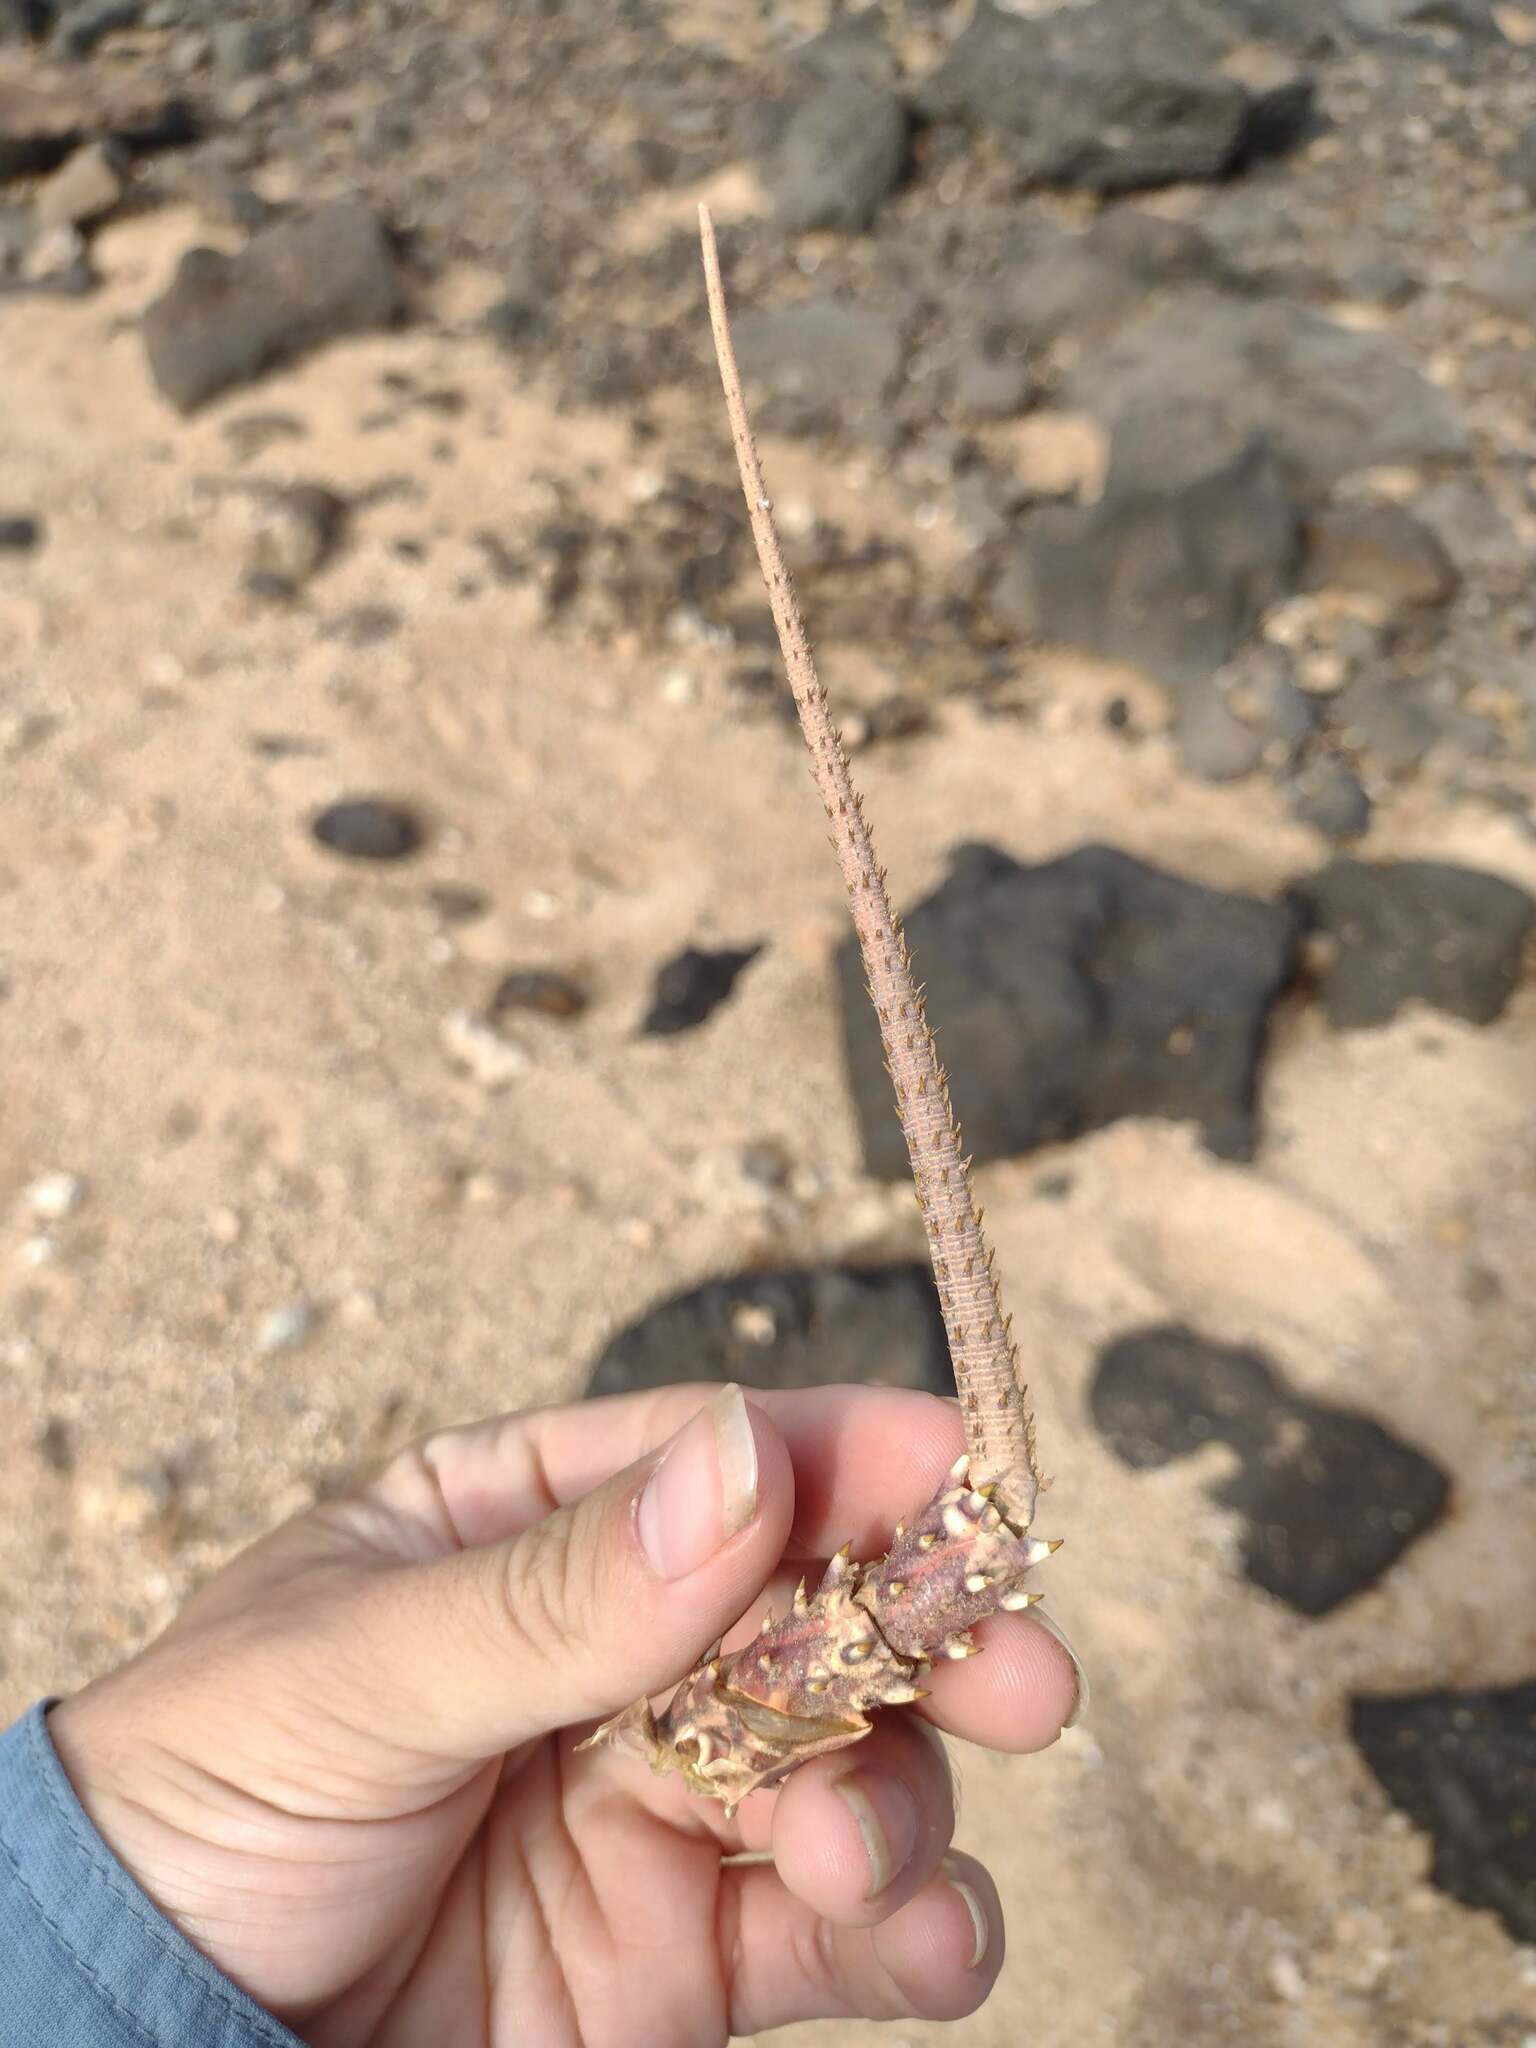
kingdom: Animalia
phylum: Arthropoda
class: Malacostraca
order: Decapoda
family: Palinuridae
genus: Panulirus
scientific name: Panulirus penicillatus
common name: Pronghorn spiny lobster
